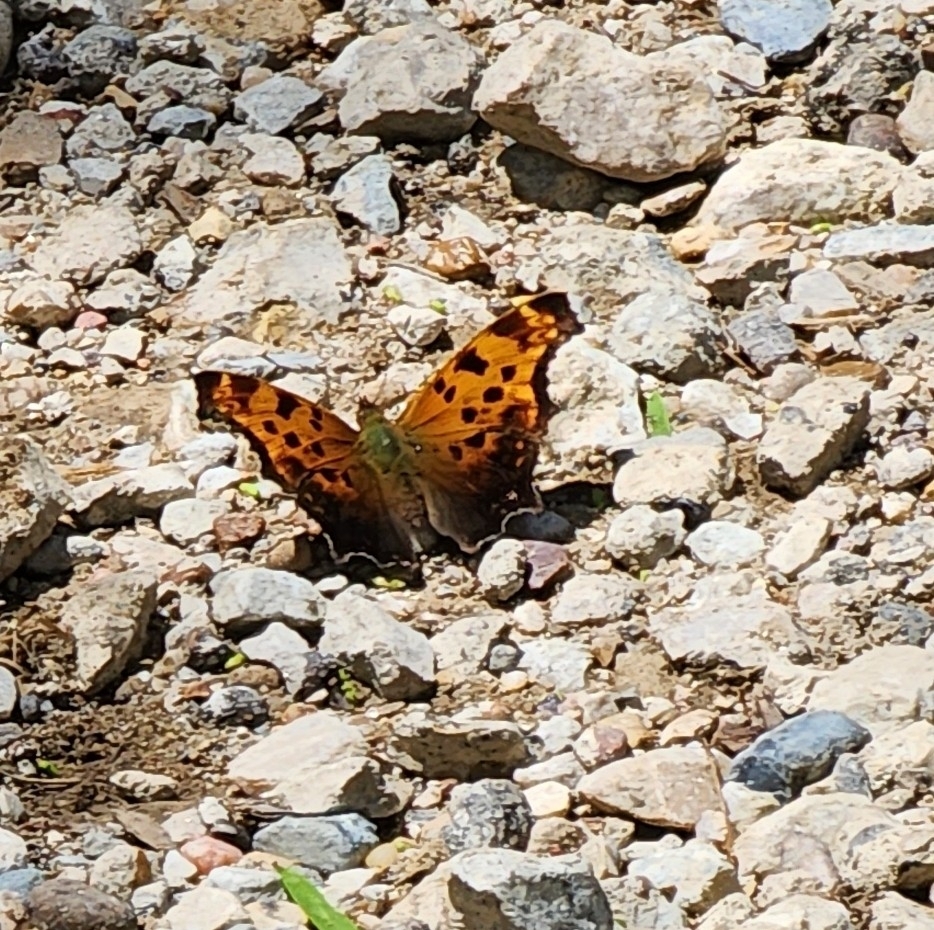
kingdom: Animalia
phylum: Arthropoda
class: Insecta
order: Lepidoptera
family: Nymphalidae
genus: Polygonia
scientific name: Polygonia comma
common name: Eastern comma
